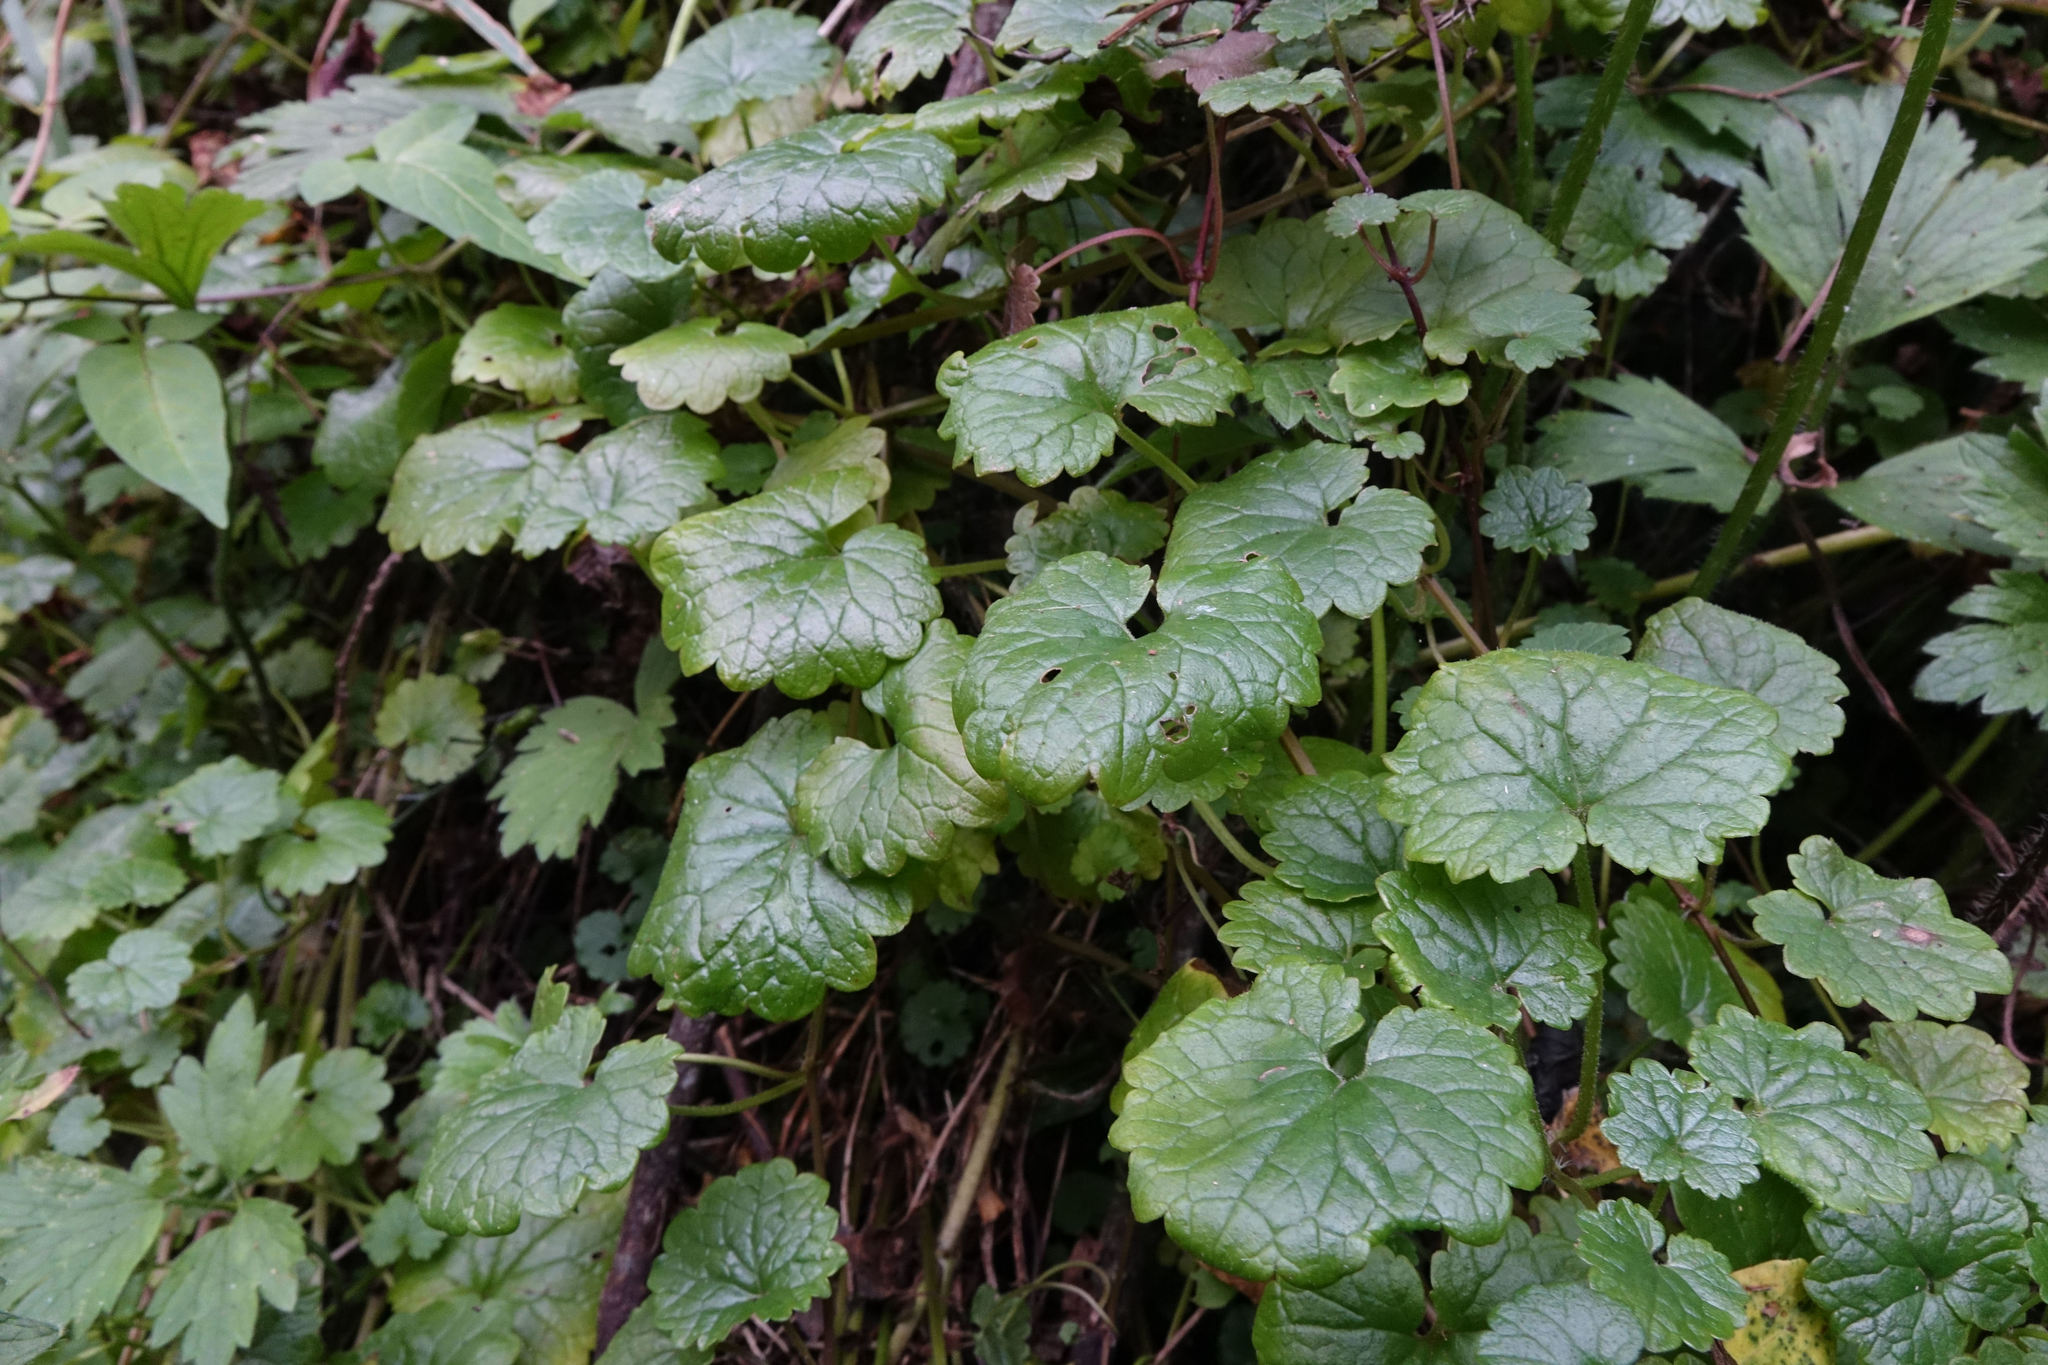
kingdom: Plantae
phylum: Tracheophyta
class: Magnoliopsida
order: Lamiales
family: Lamiaceae
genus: Glechoma
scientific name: Glechoma hederacea
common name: Ground ivy
